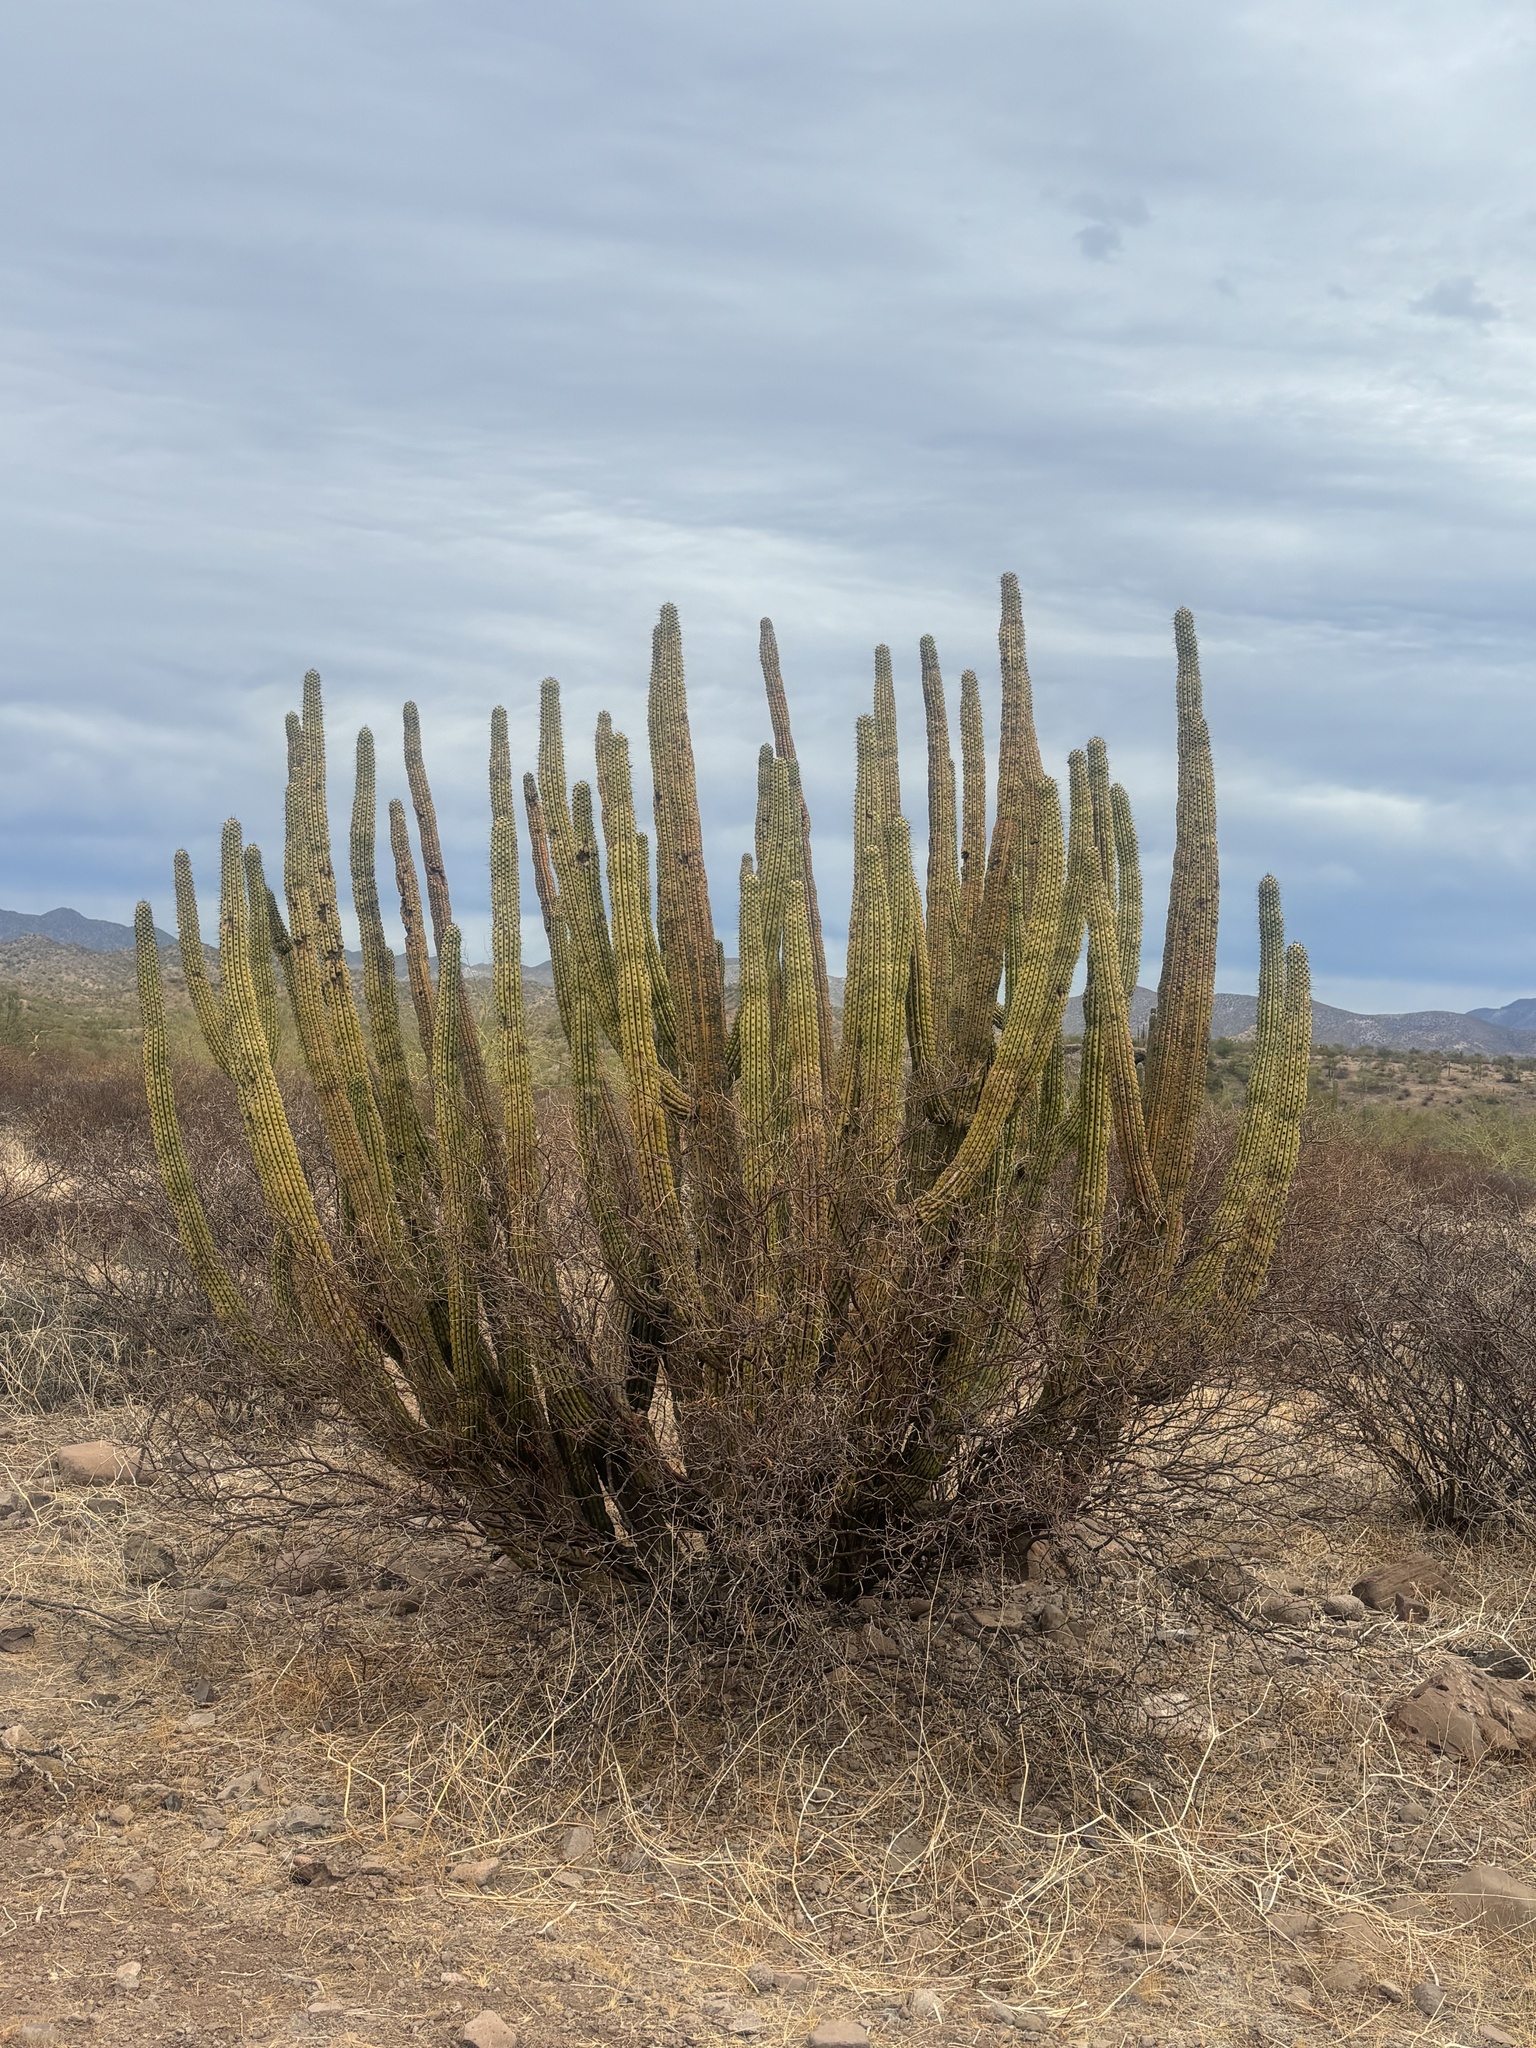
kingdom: Plantae
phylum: Tracheophyta
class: Magnoliopsida
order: Caryophyllales
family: Cactaceae
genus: Stenocereus
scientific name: Stenocereus thurberi
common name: Organ pipe cactus
